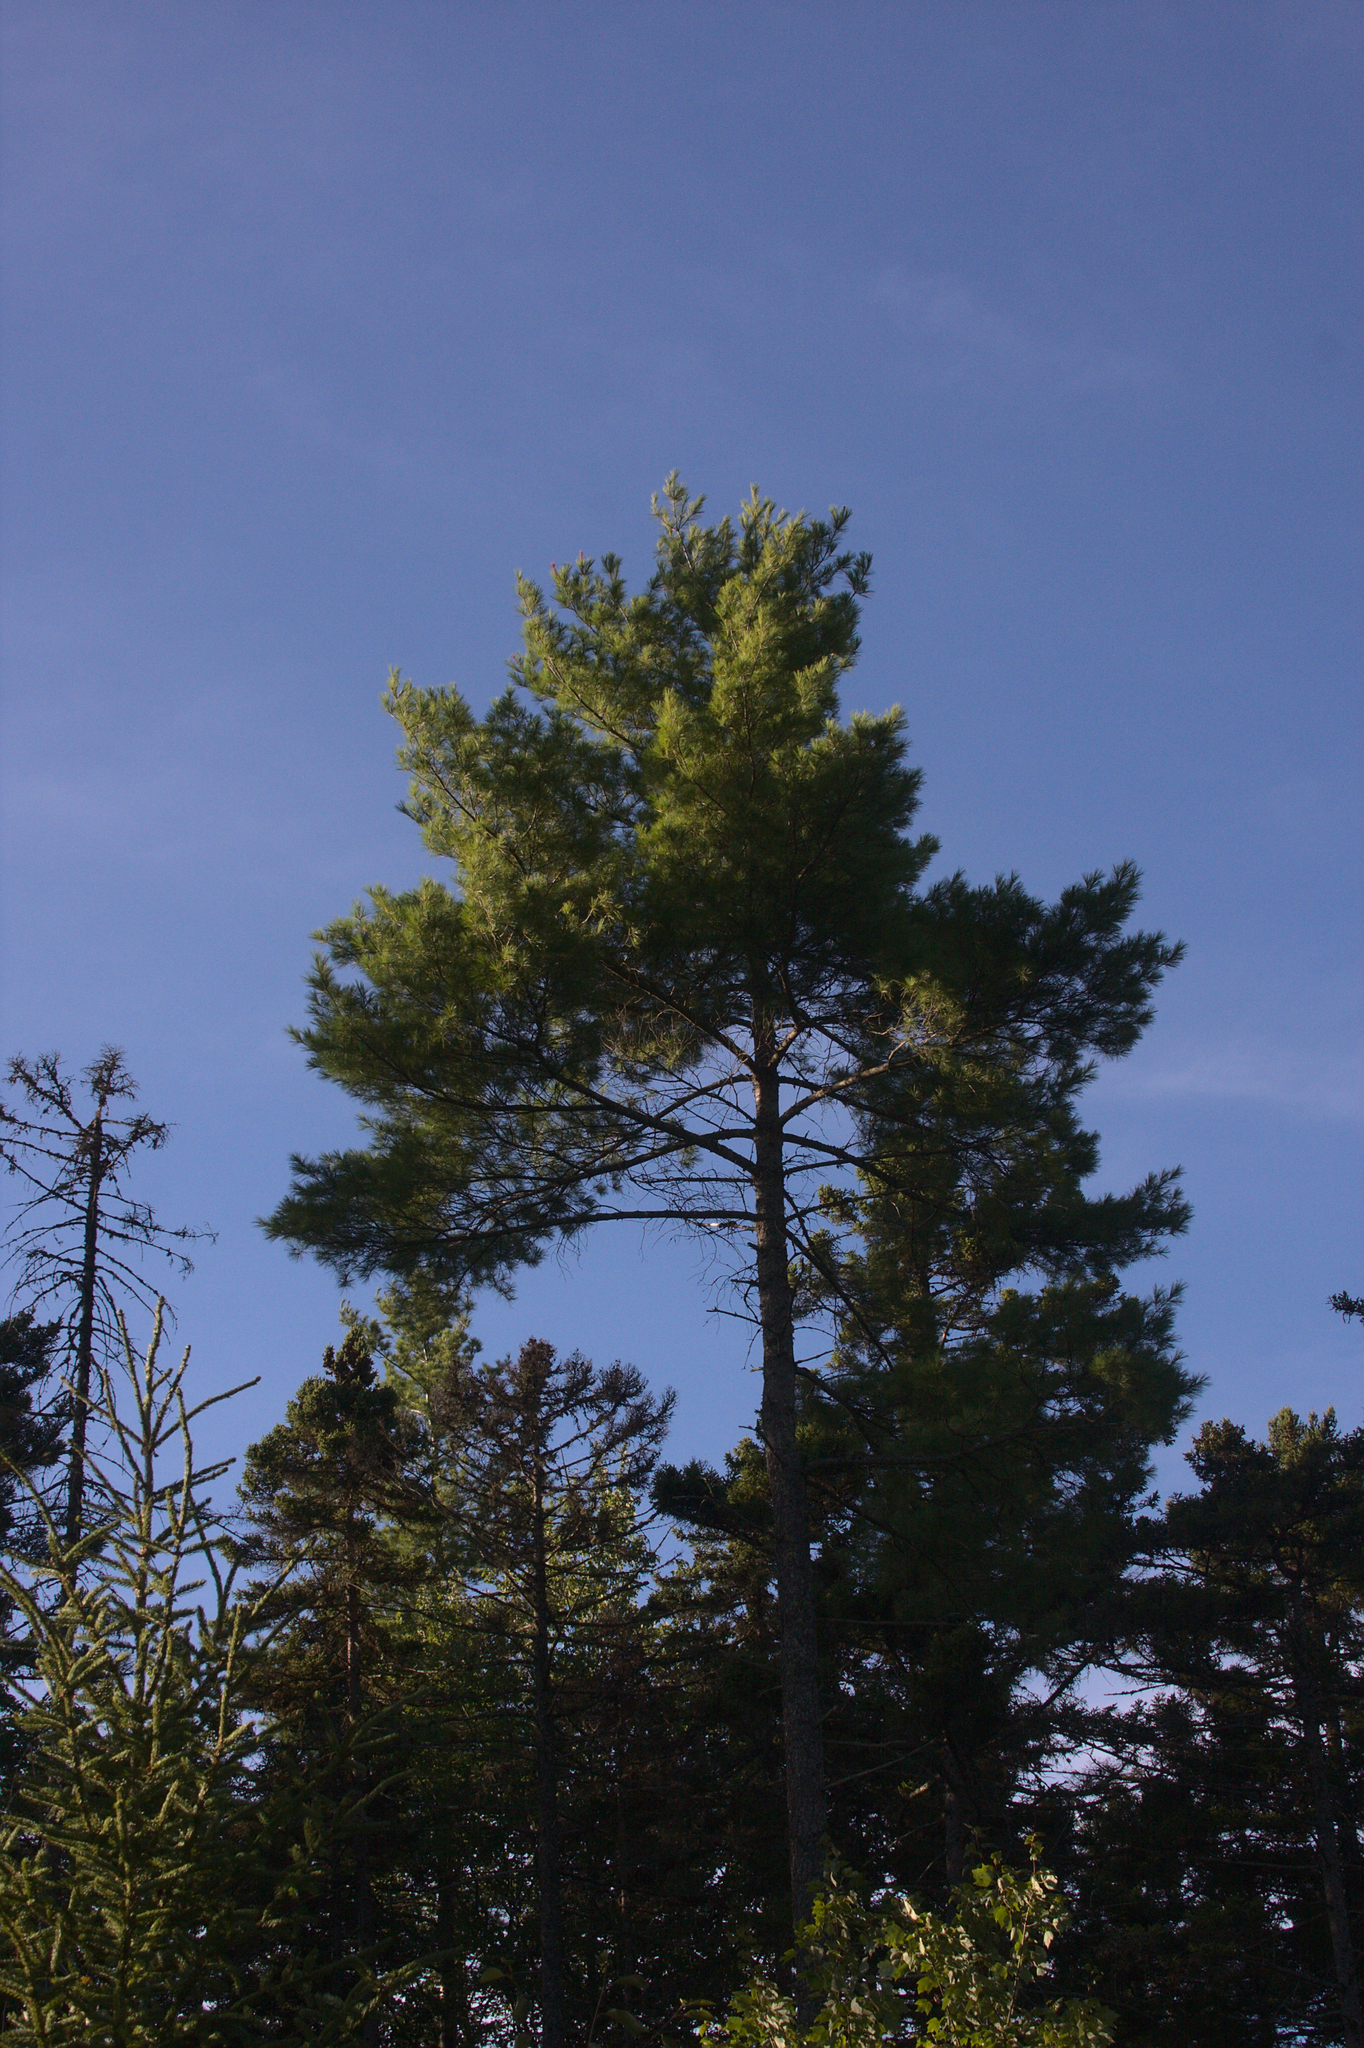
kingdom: Plantae
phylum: Tracheophyta
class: Pinopsida
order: Pinales
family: Pinaceae
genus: Pinus
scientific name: Pinus strobus
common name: Weymouth pine
